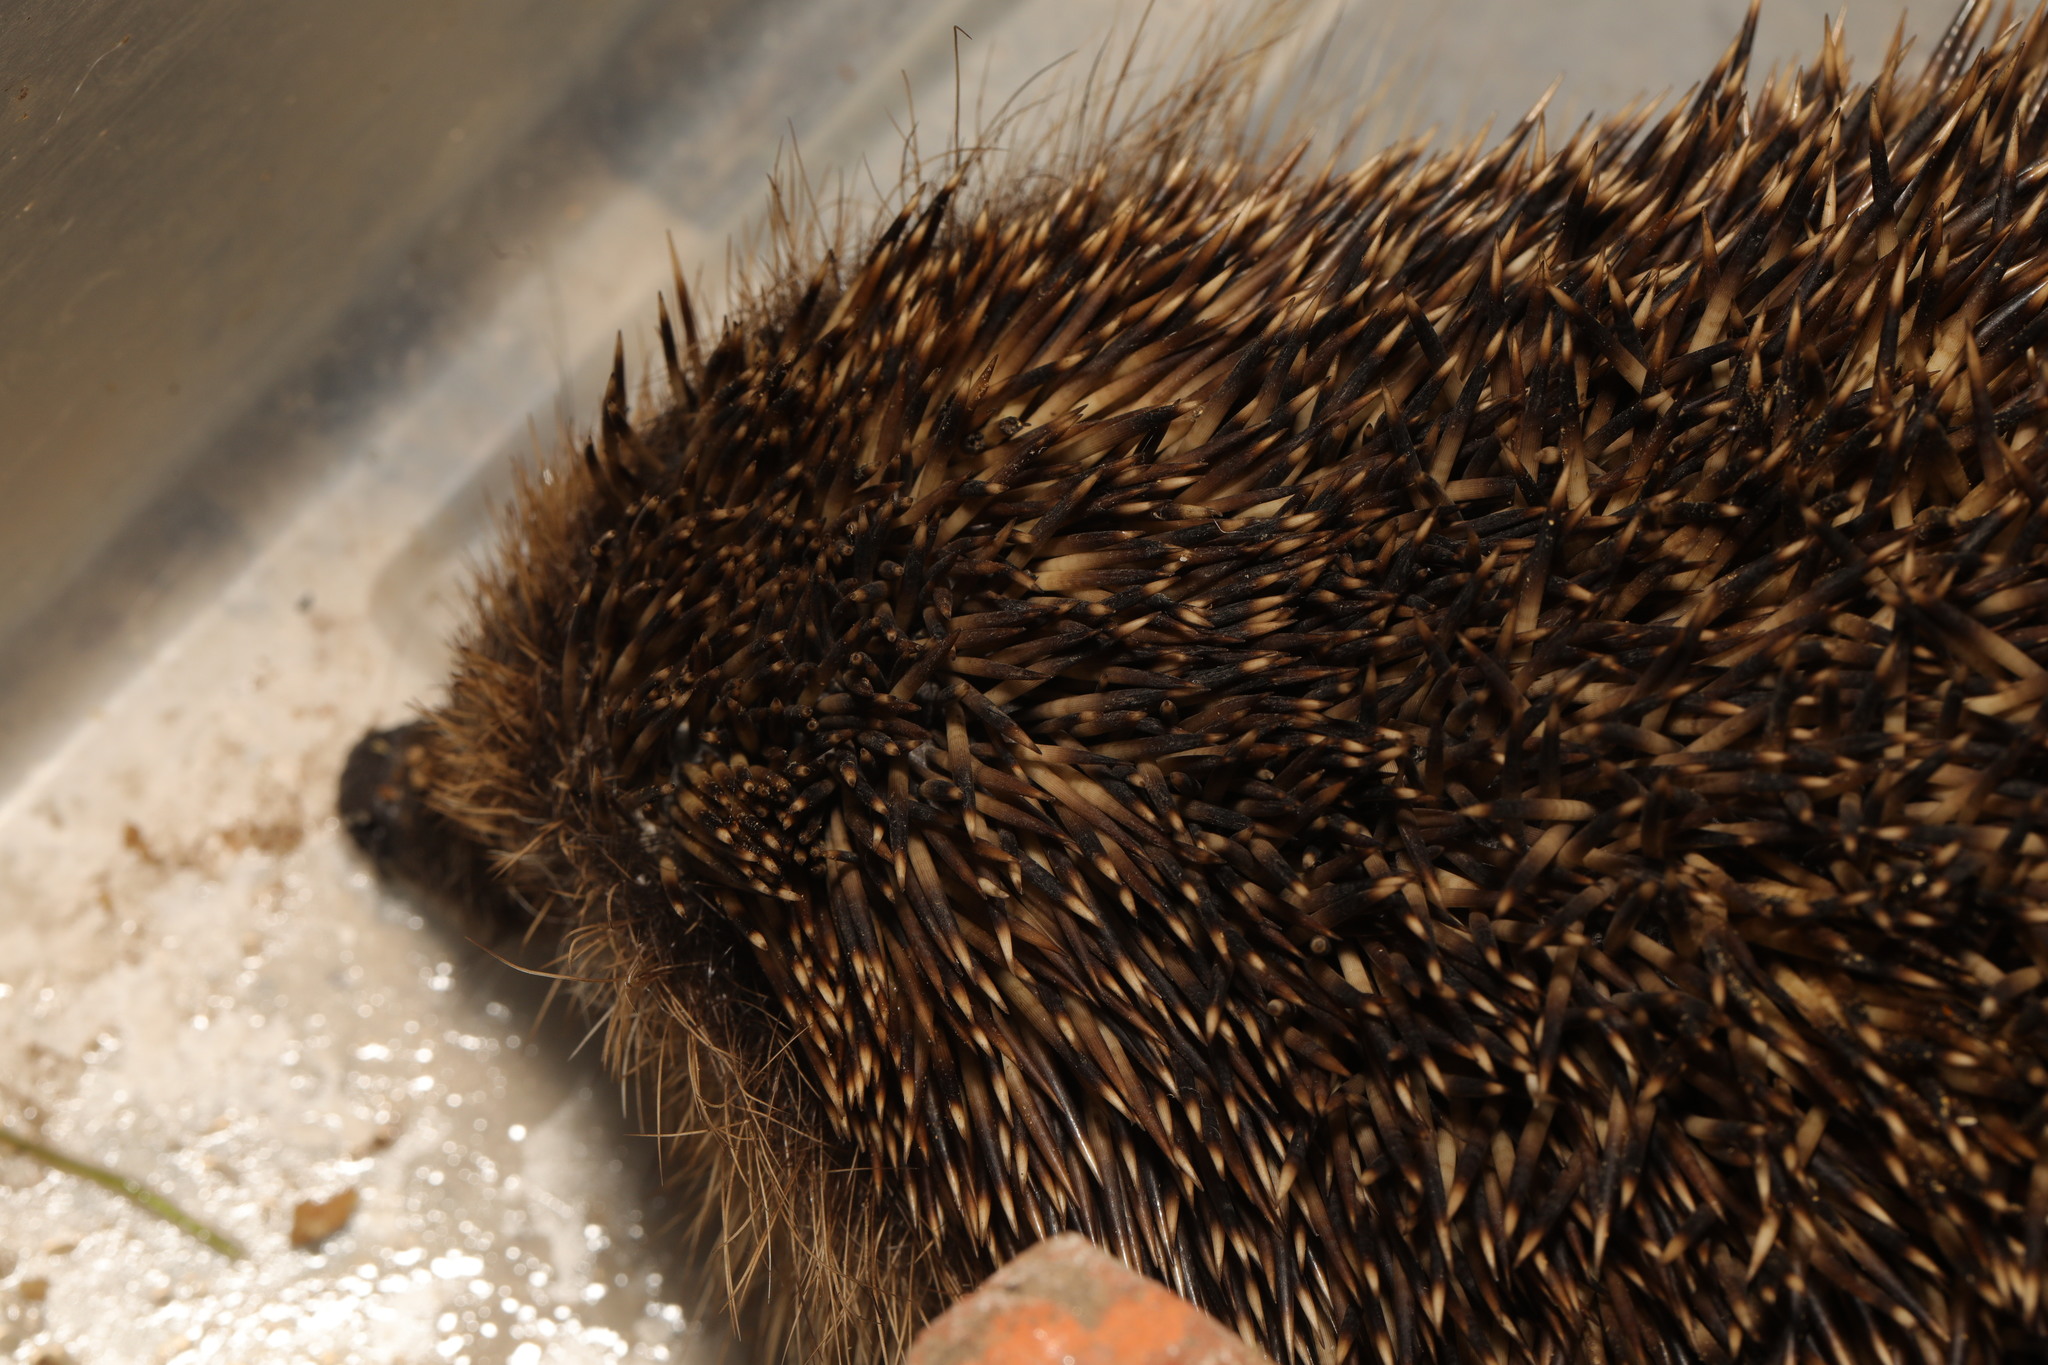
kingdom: Animalia
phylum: Chordata
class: Mammalia
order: Erinaceomorpha
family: Erinaceidae
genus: Erinaceus
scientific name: Erinaceus europaeus
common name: West european hedgehog
